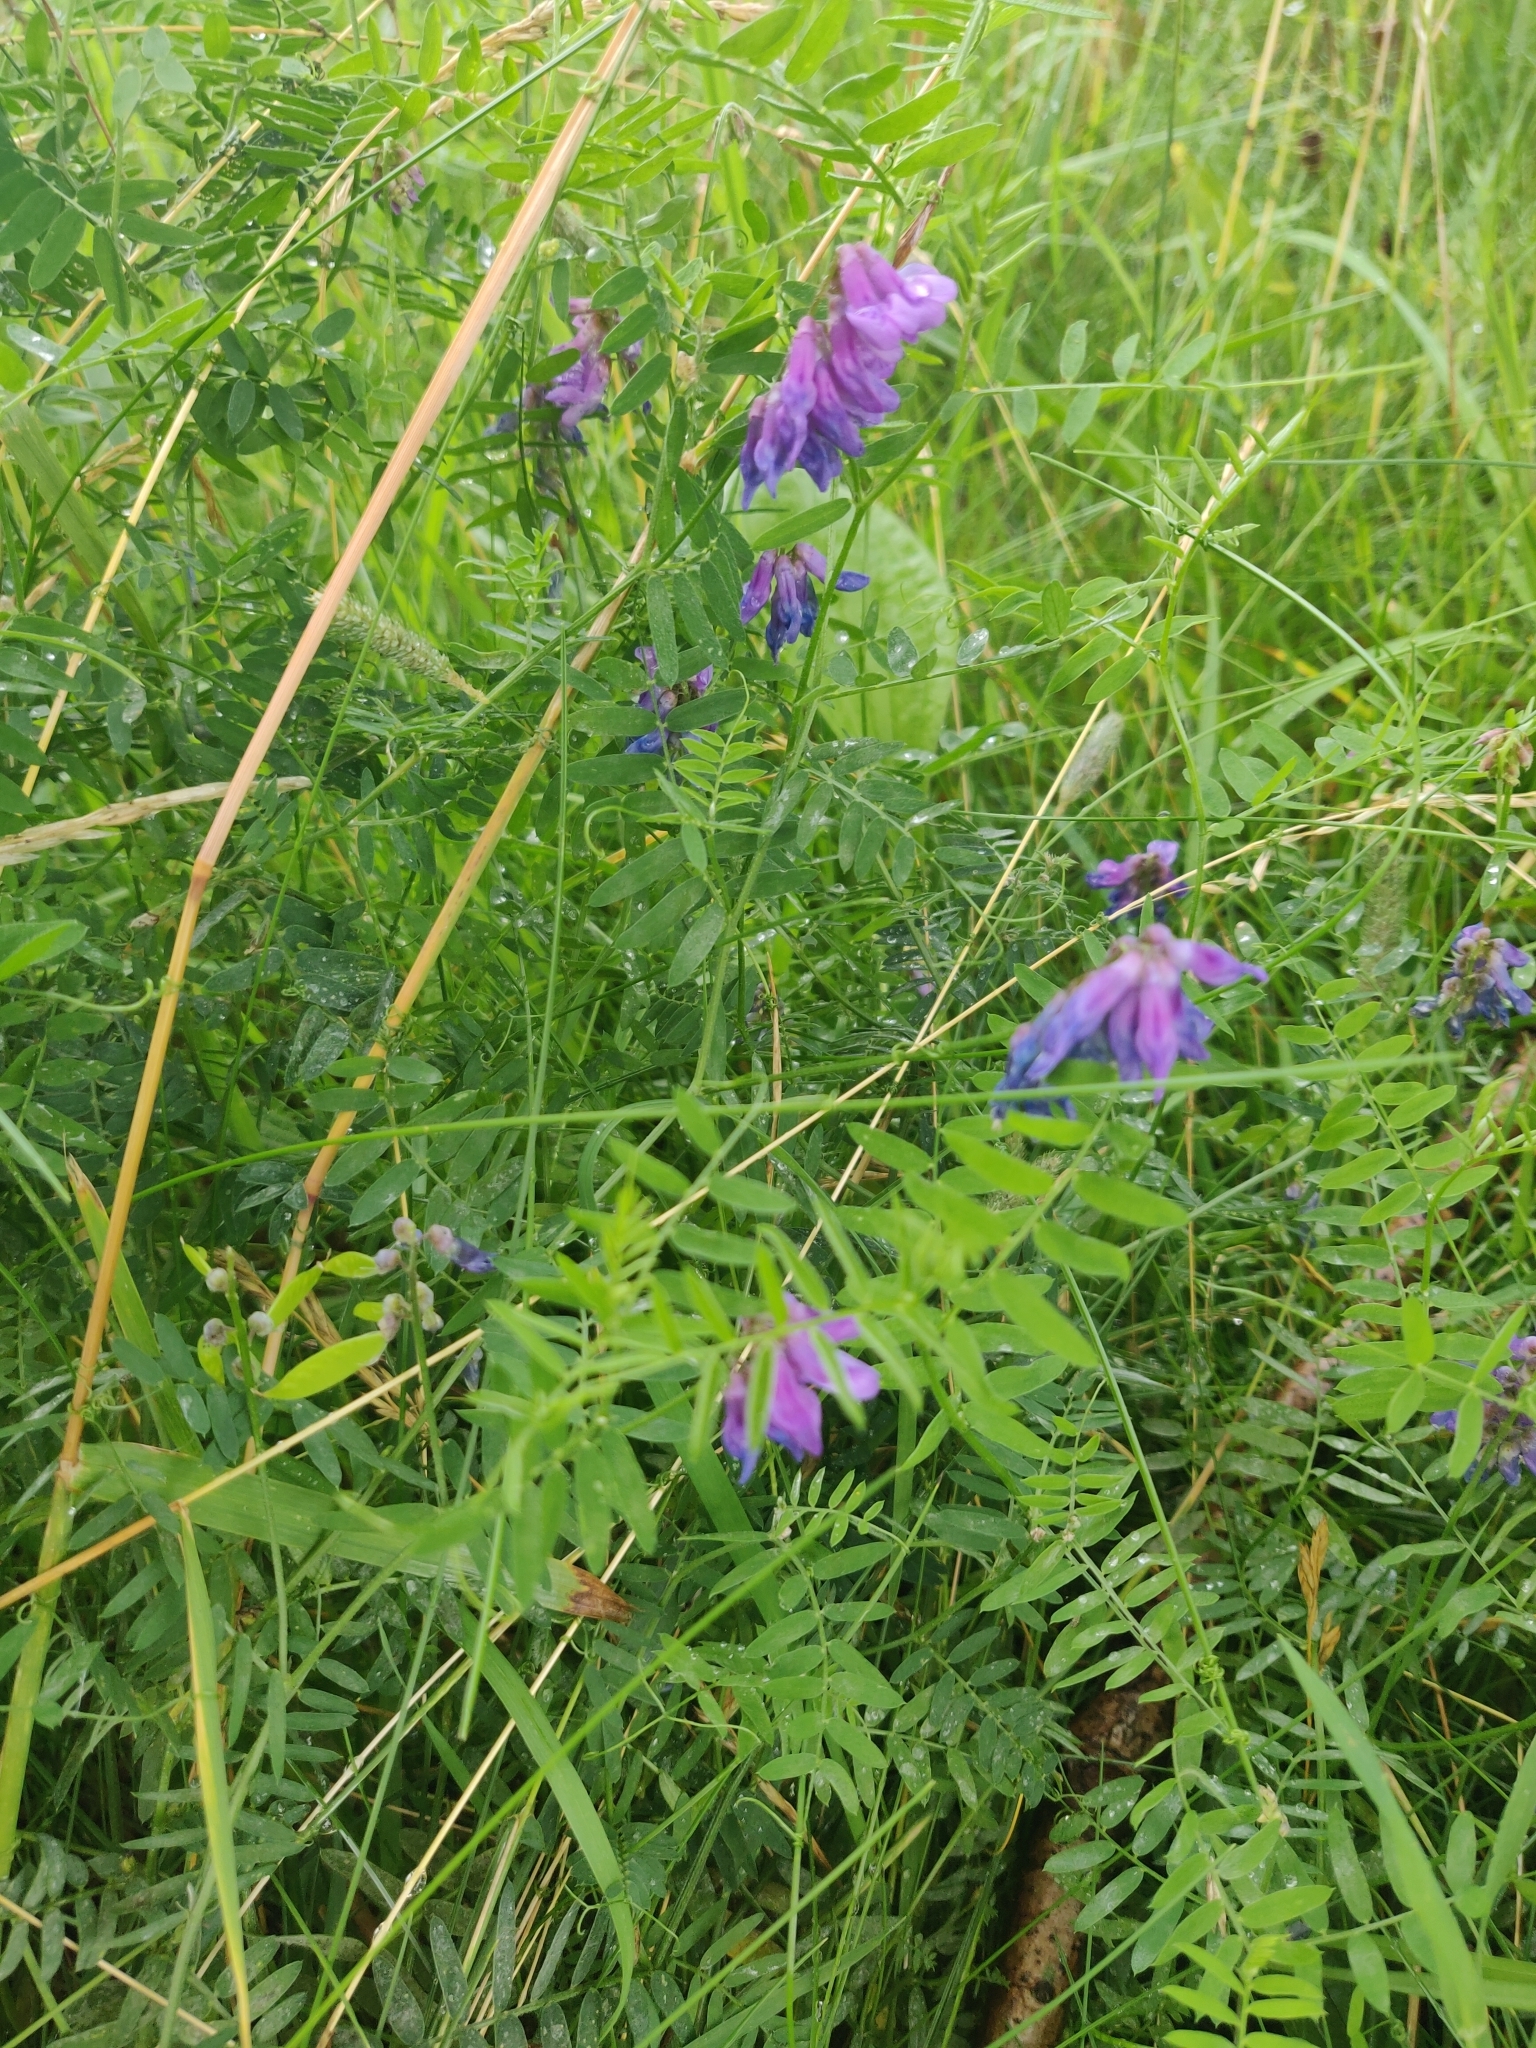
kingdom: Plantae
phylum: Tracheophyta
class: Magnoliopsida
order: Fabales
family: Fabaceae
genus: Vicia
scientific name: Vicia cracca
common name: Bird vetch
